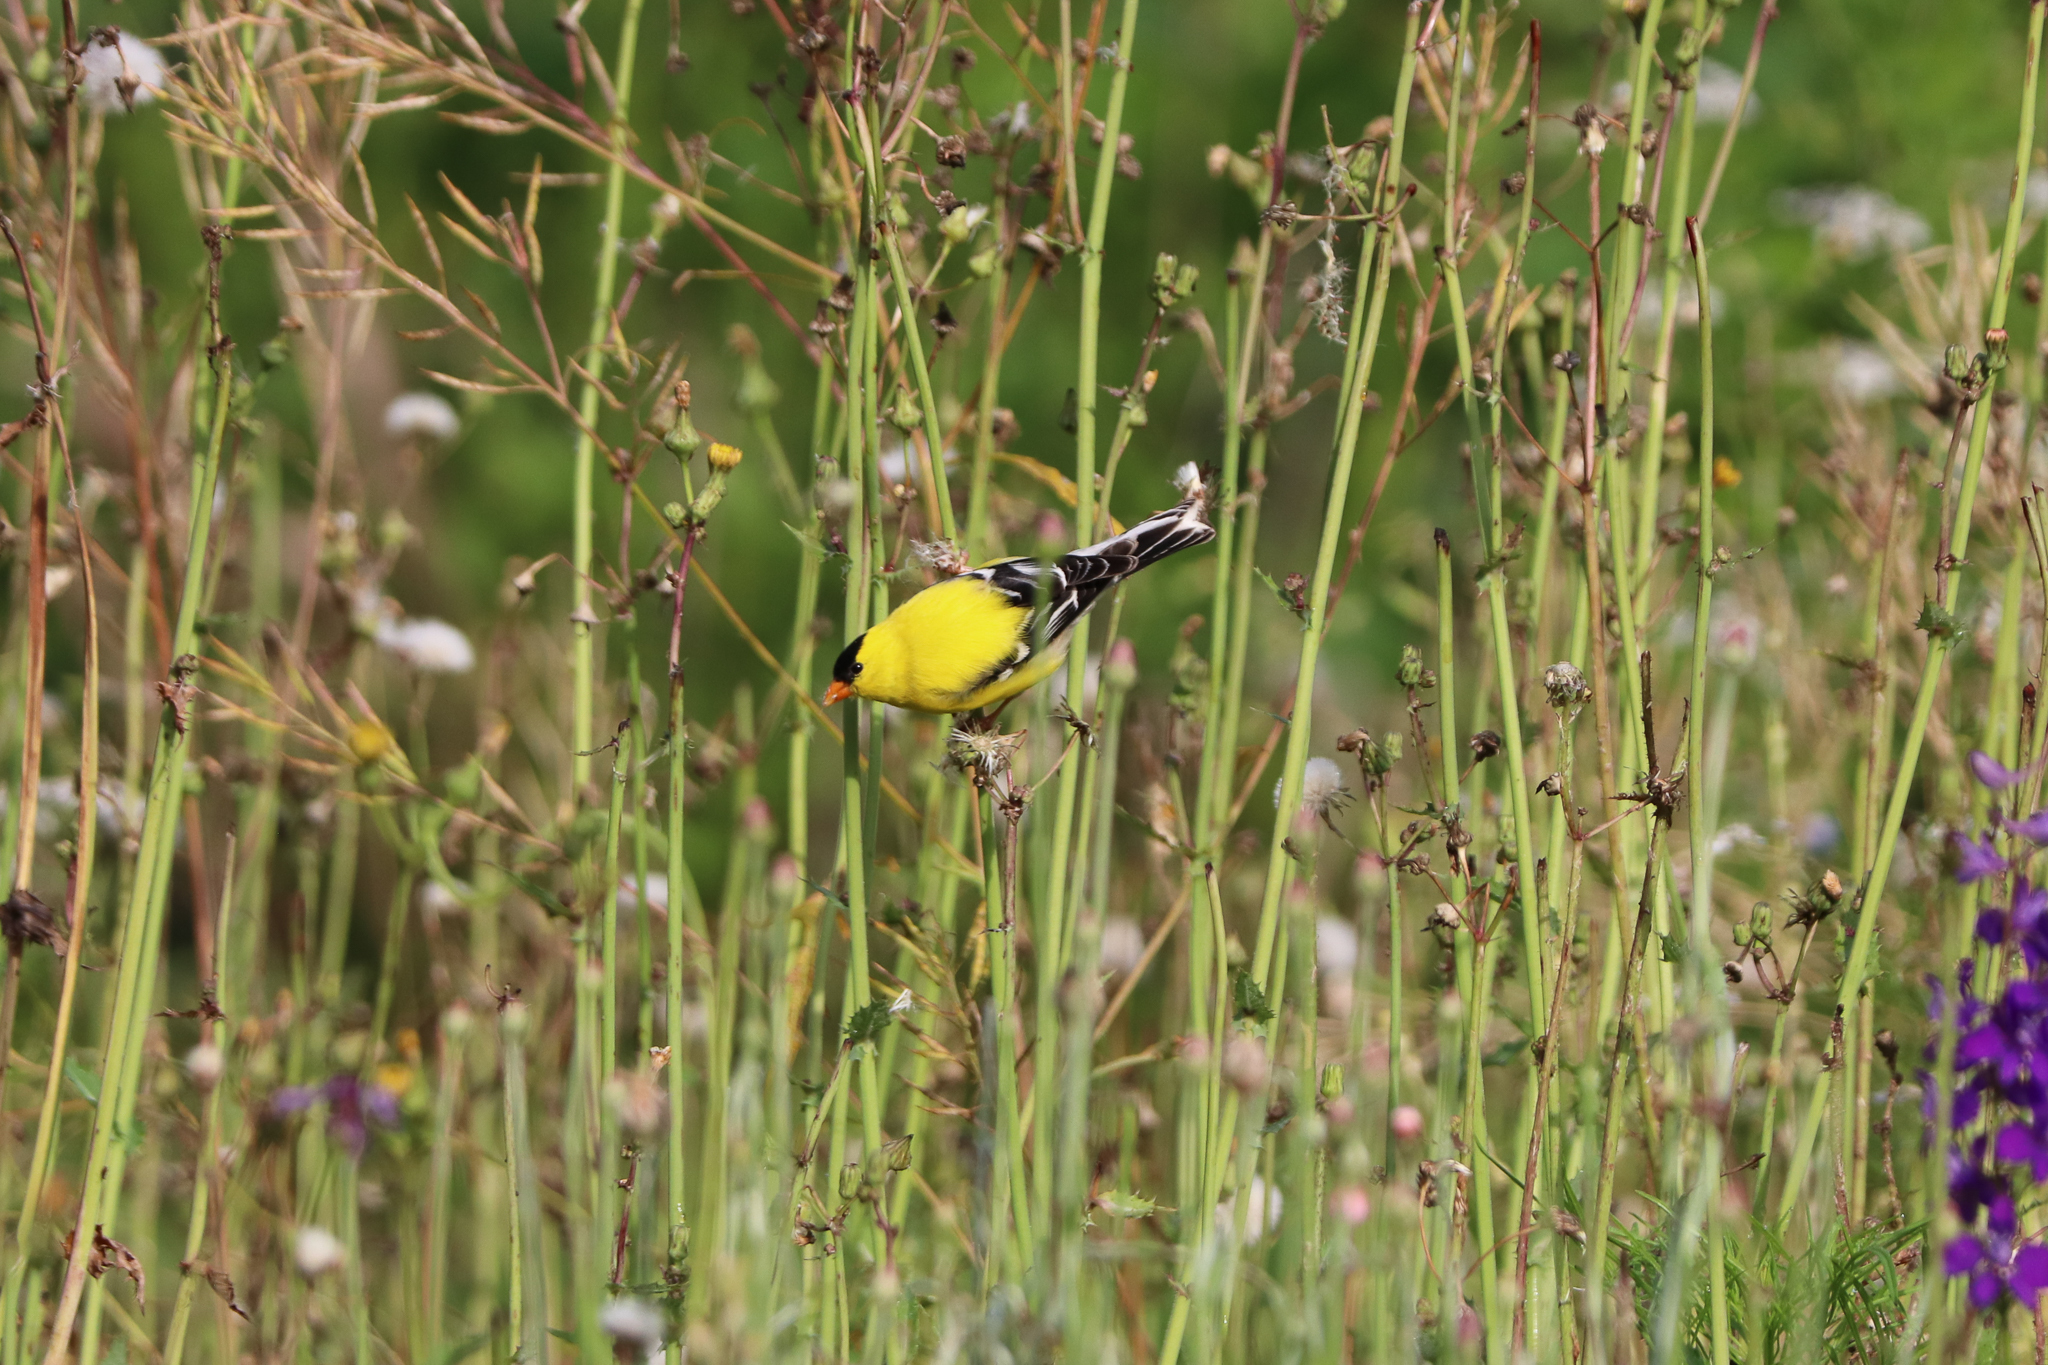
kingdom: Animalia
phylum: Chordata
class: Aves
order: Passeriformes
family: Fringillidae
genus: Spinus
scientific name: Spinus tristis
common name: American goldfinch
